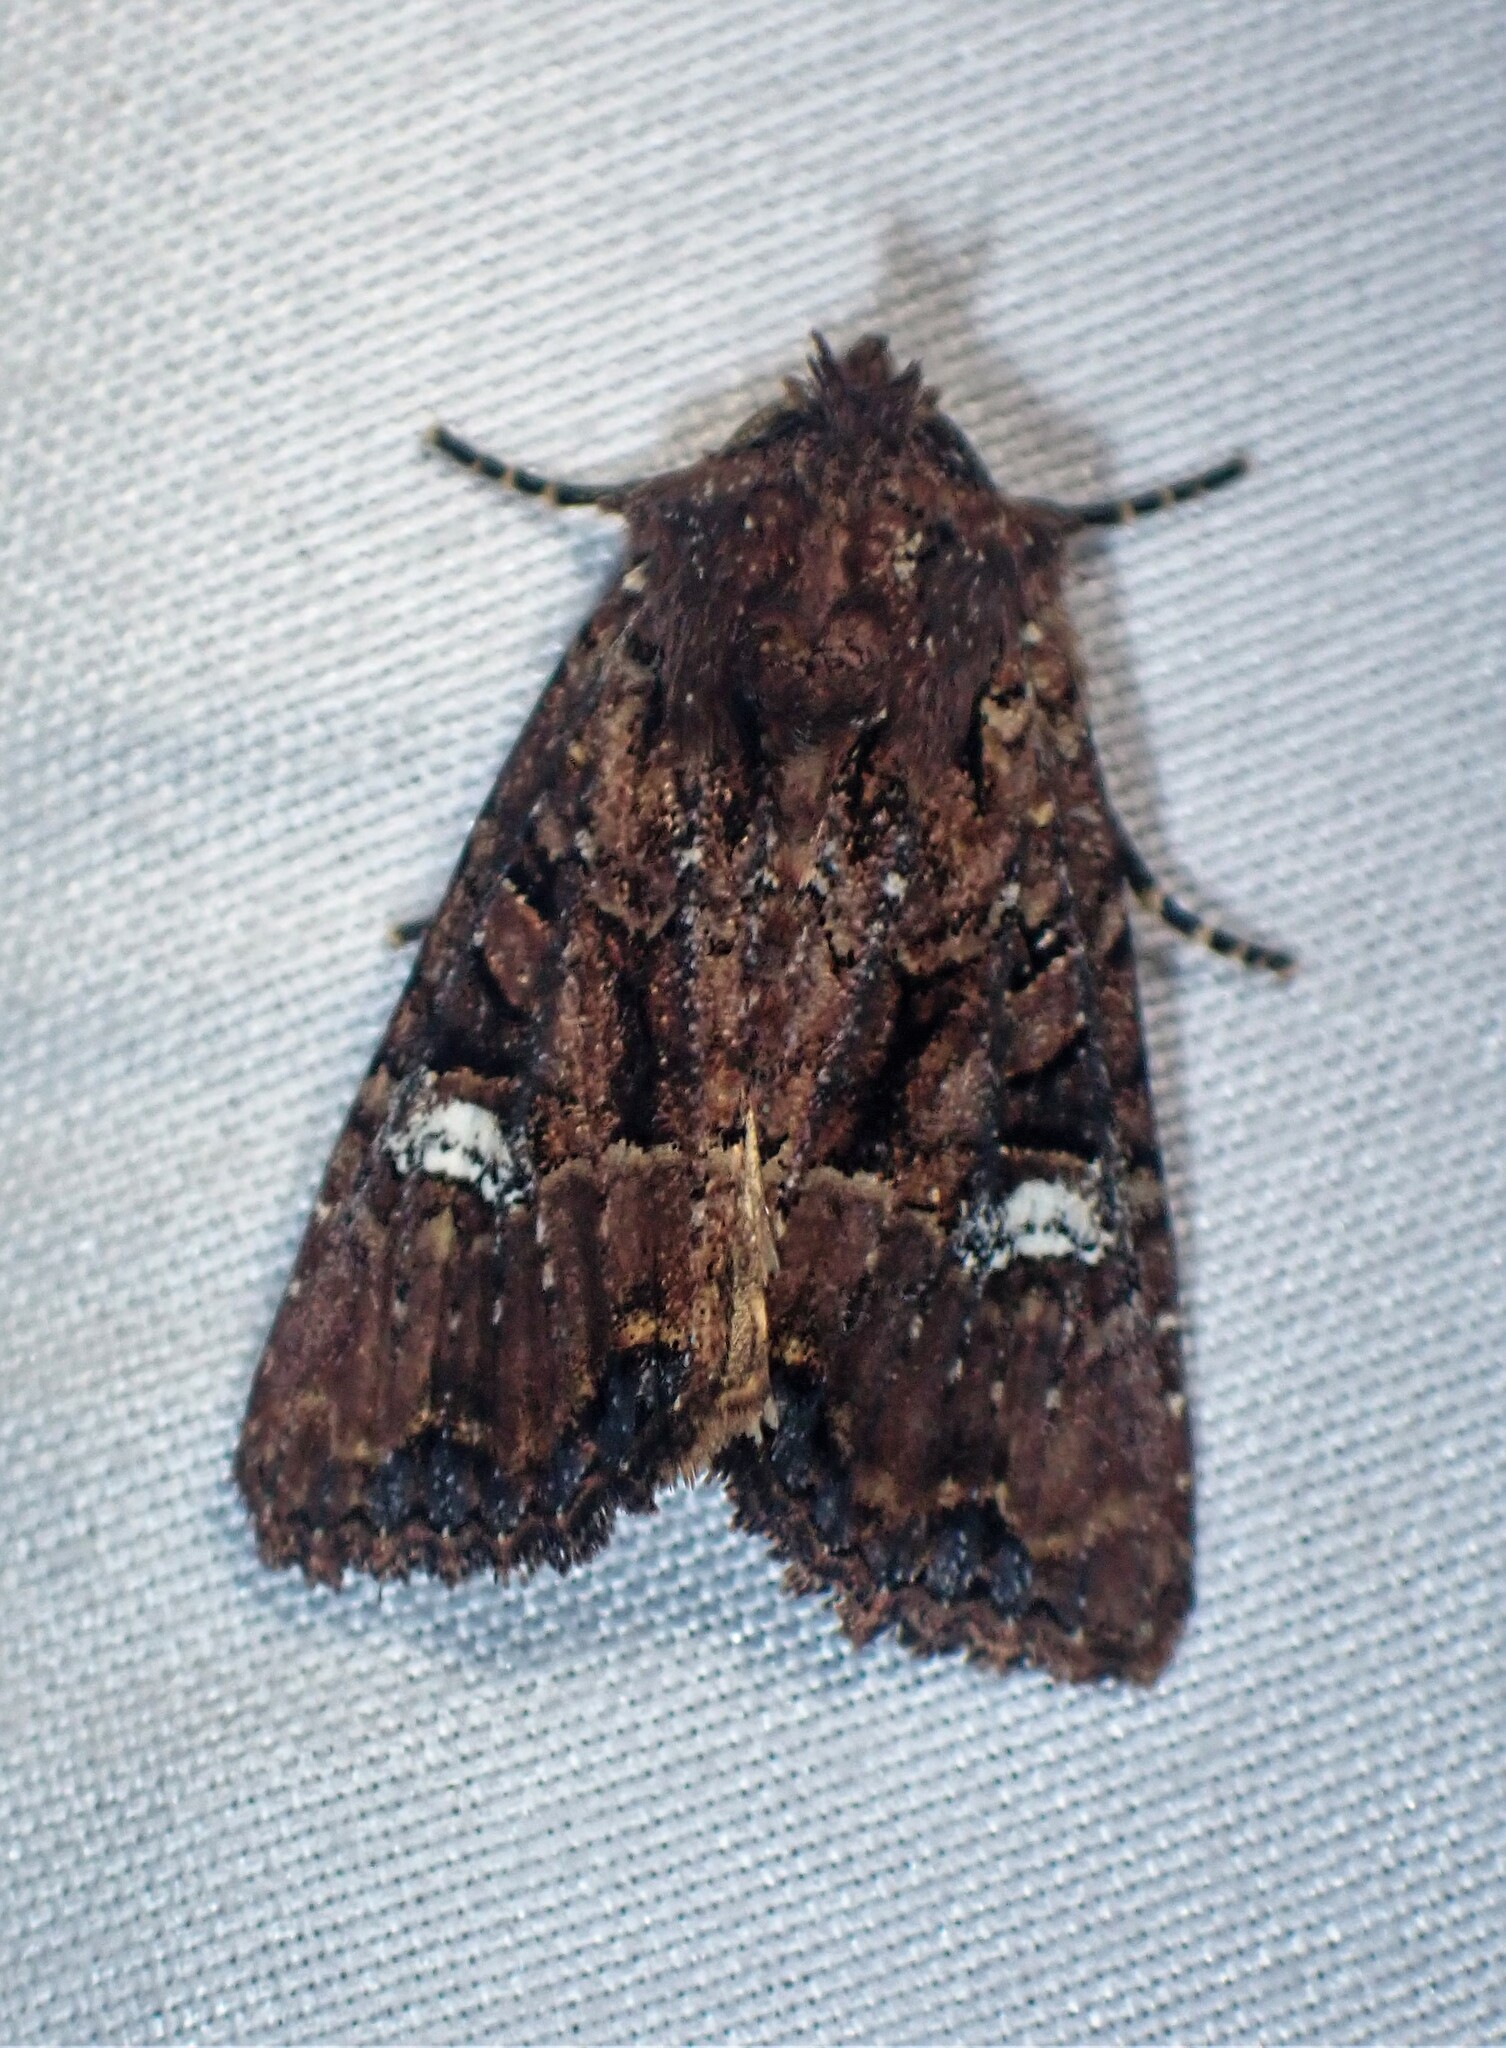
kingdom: Animalia
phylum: Arthropoda
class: Insecta
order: Lepidoptera
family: Noctuidae
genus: Mesapamea
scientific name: Mesapamea storai
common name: Owlet moth
